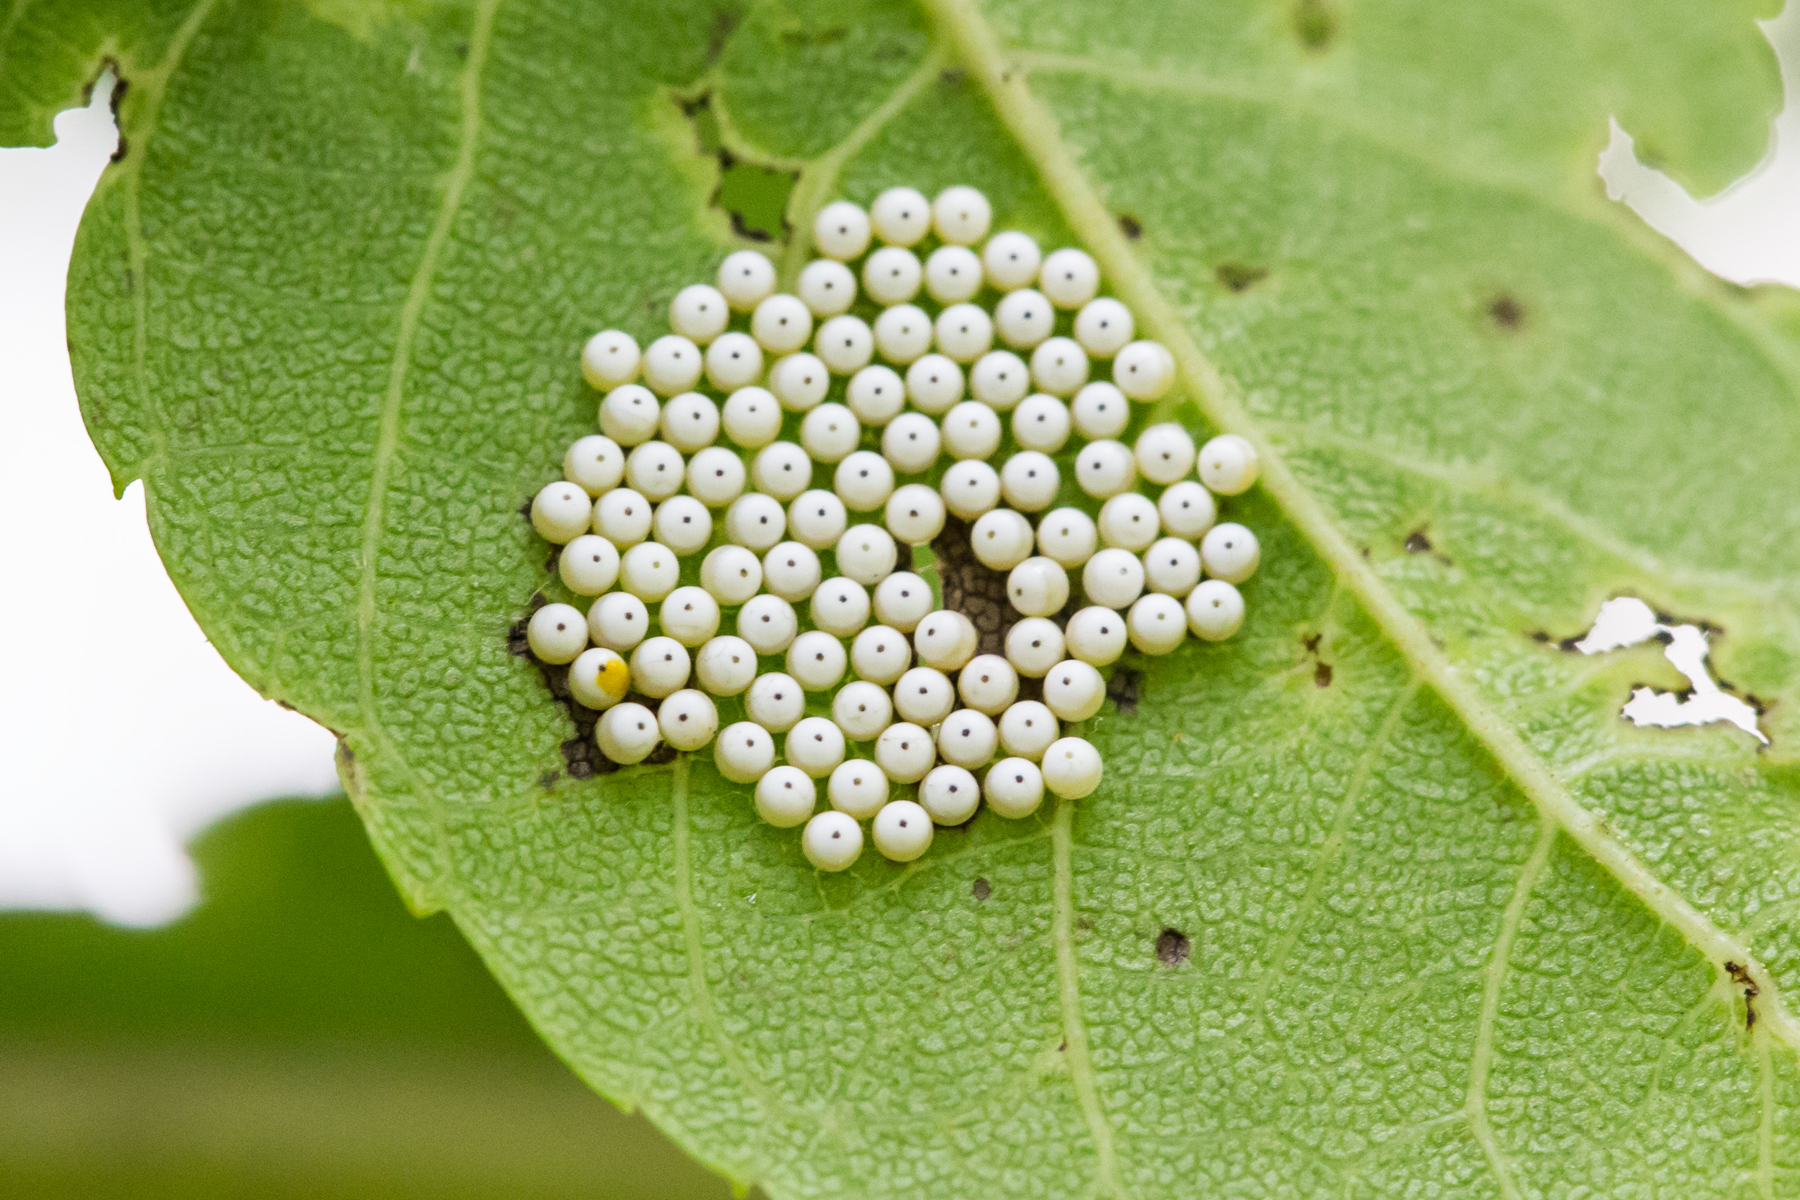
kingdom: Animalia
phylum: Arthropoda
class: Insecta
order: Lepidoptera
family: Notodontidae
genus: Datana
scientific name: Datana integerrima
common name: Walnut caterpillar
